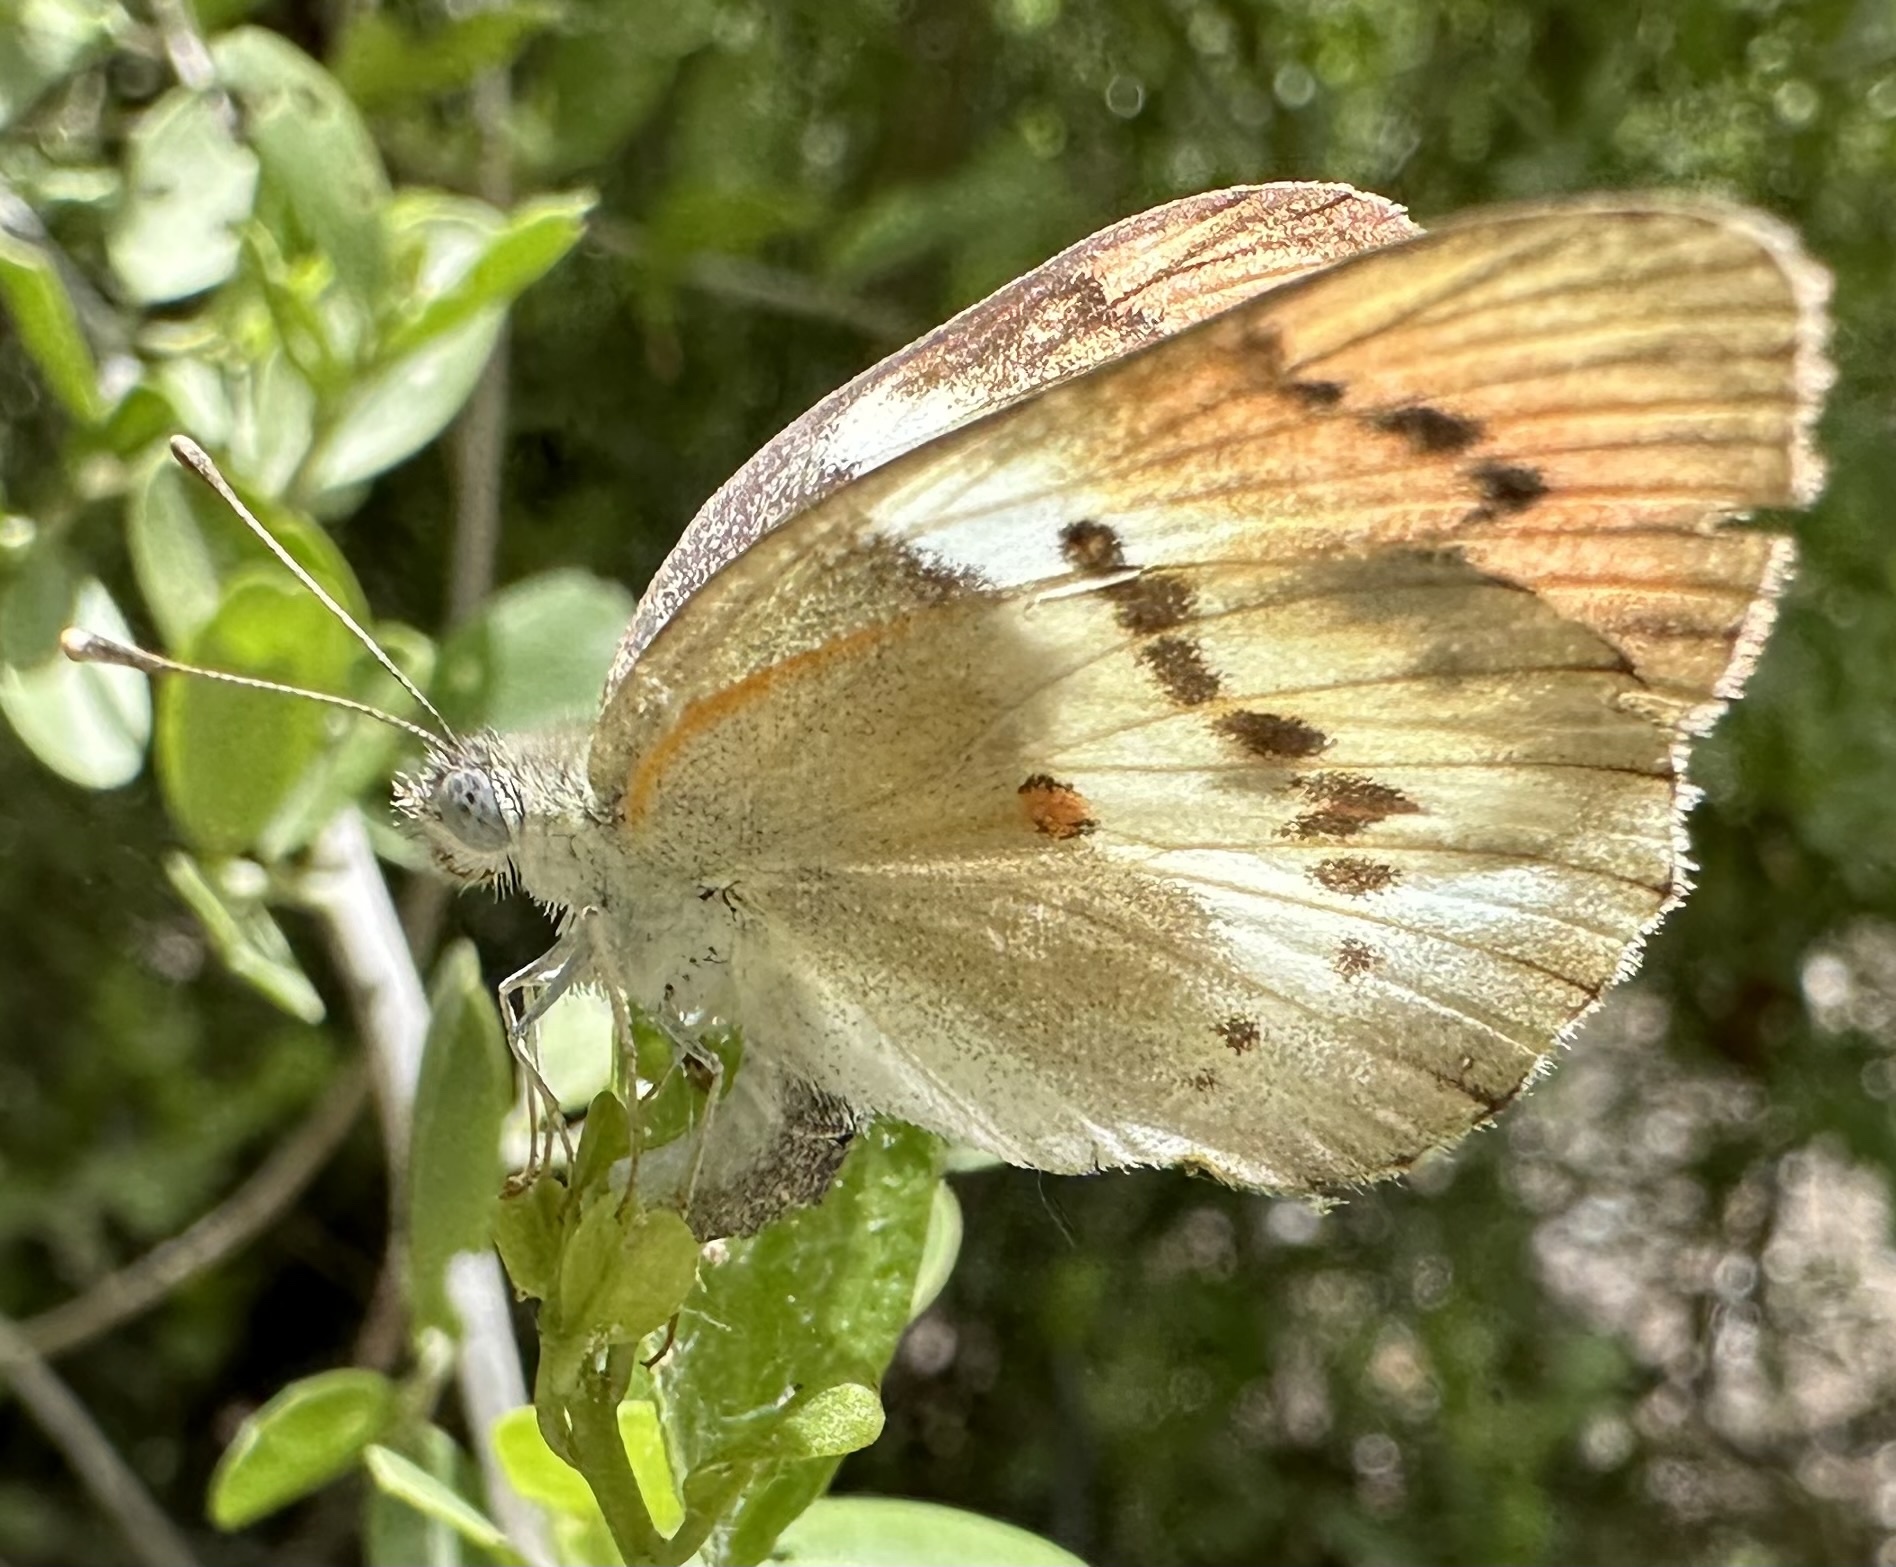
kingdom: Animalia
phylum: Arthropoda
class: Insecta
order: Lepidoptera
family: Pieridae
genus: Colotis
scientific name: Colotis annae
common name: Scarlet tip
